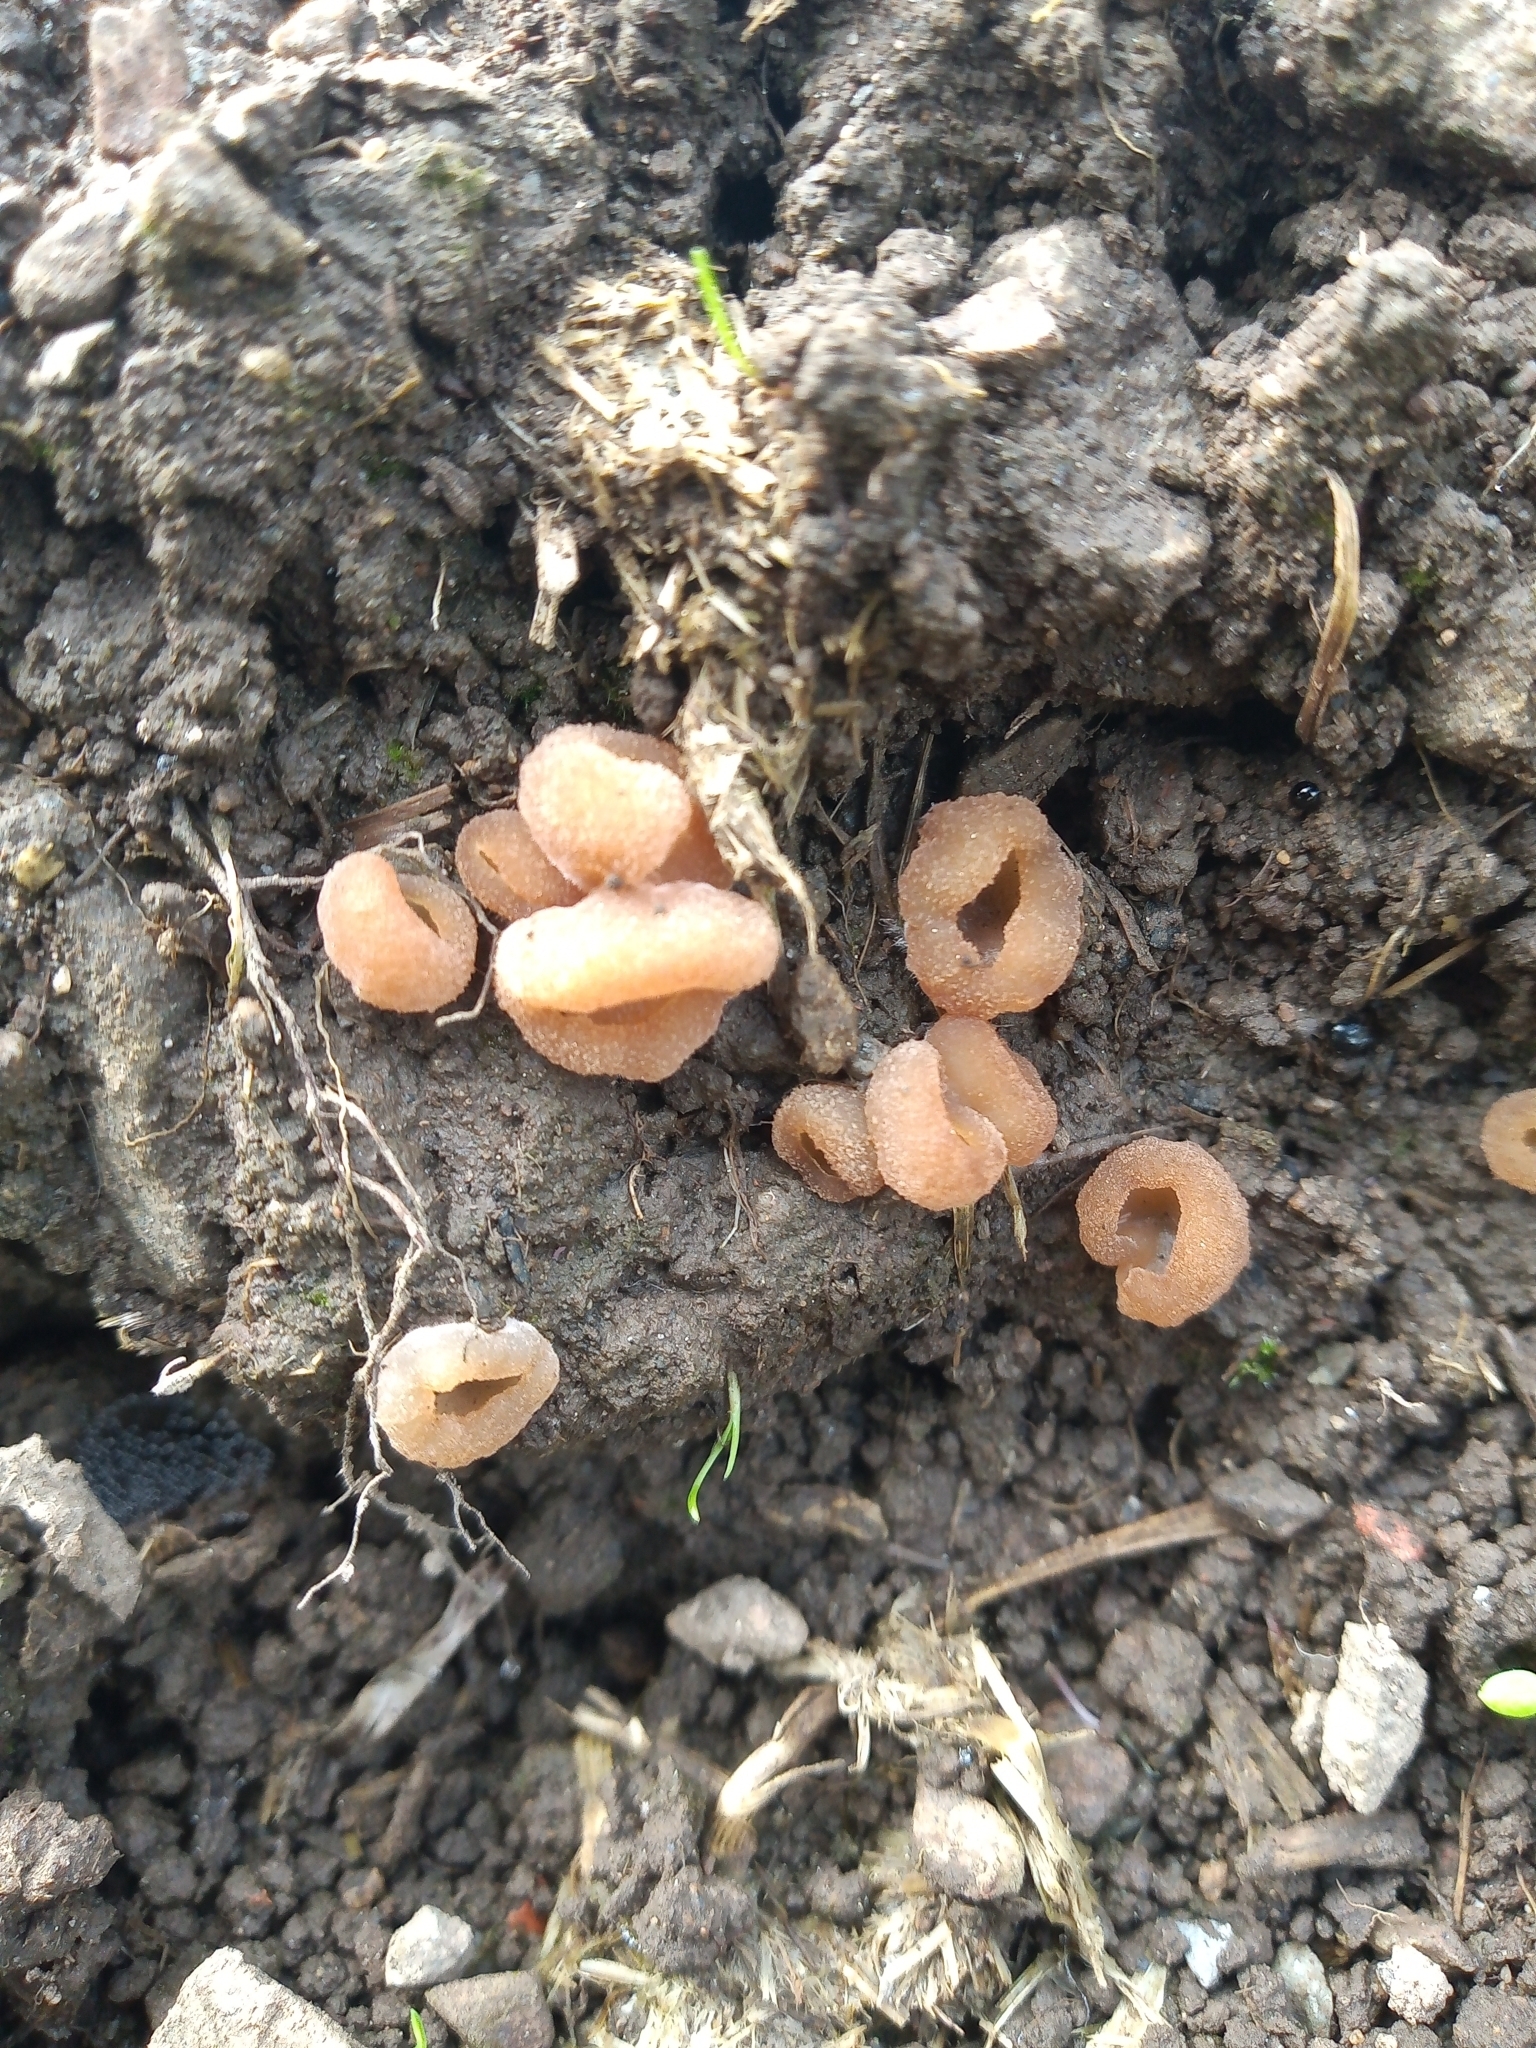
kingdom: Fungi
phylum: Ascomycota
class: Pezizomycetes
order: Pezizales
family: Pezizaceae
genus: Peziza
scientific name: Peziza vesiculosa
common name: Blistered cup
